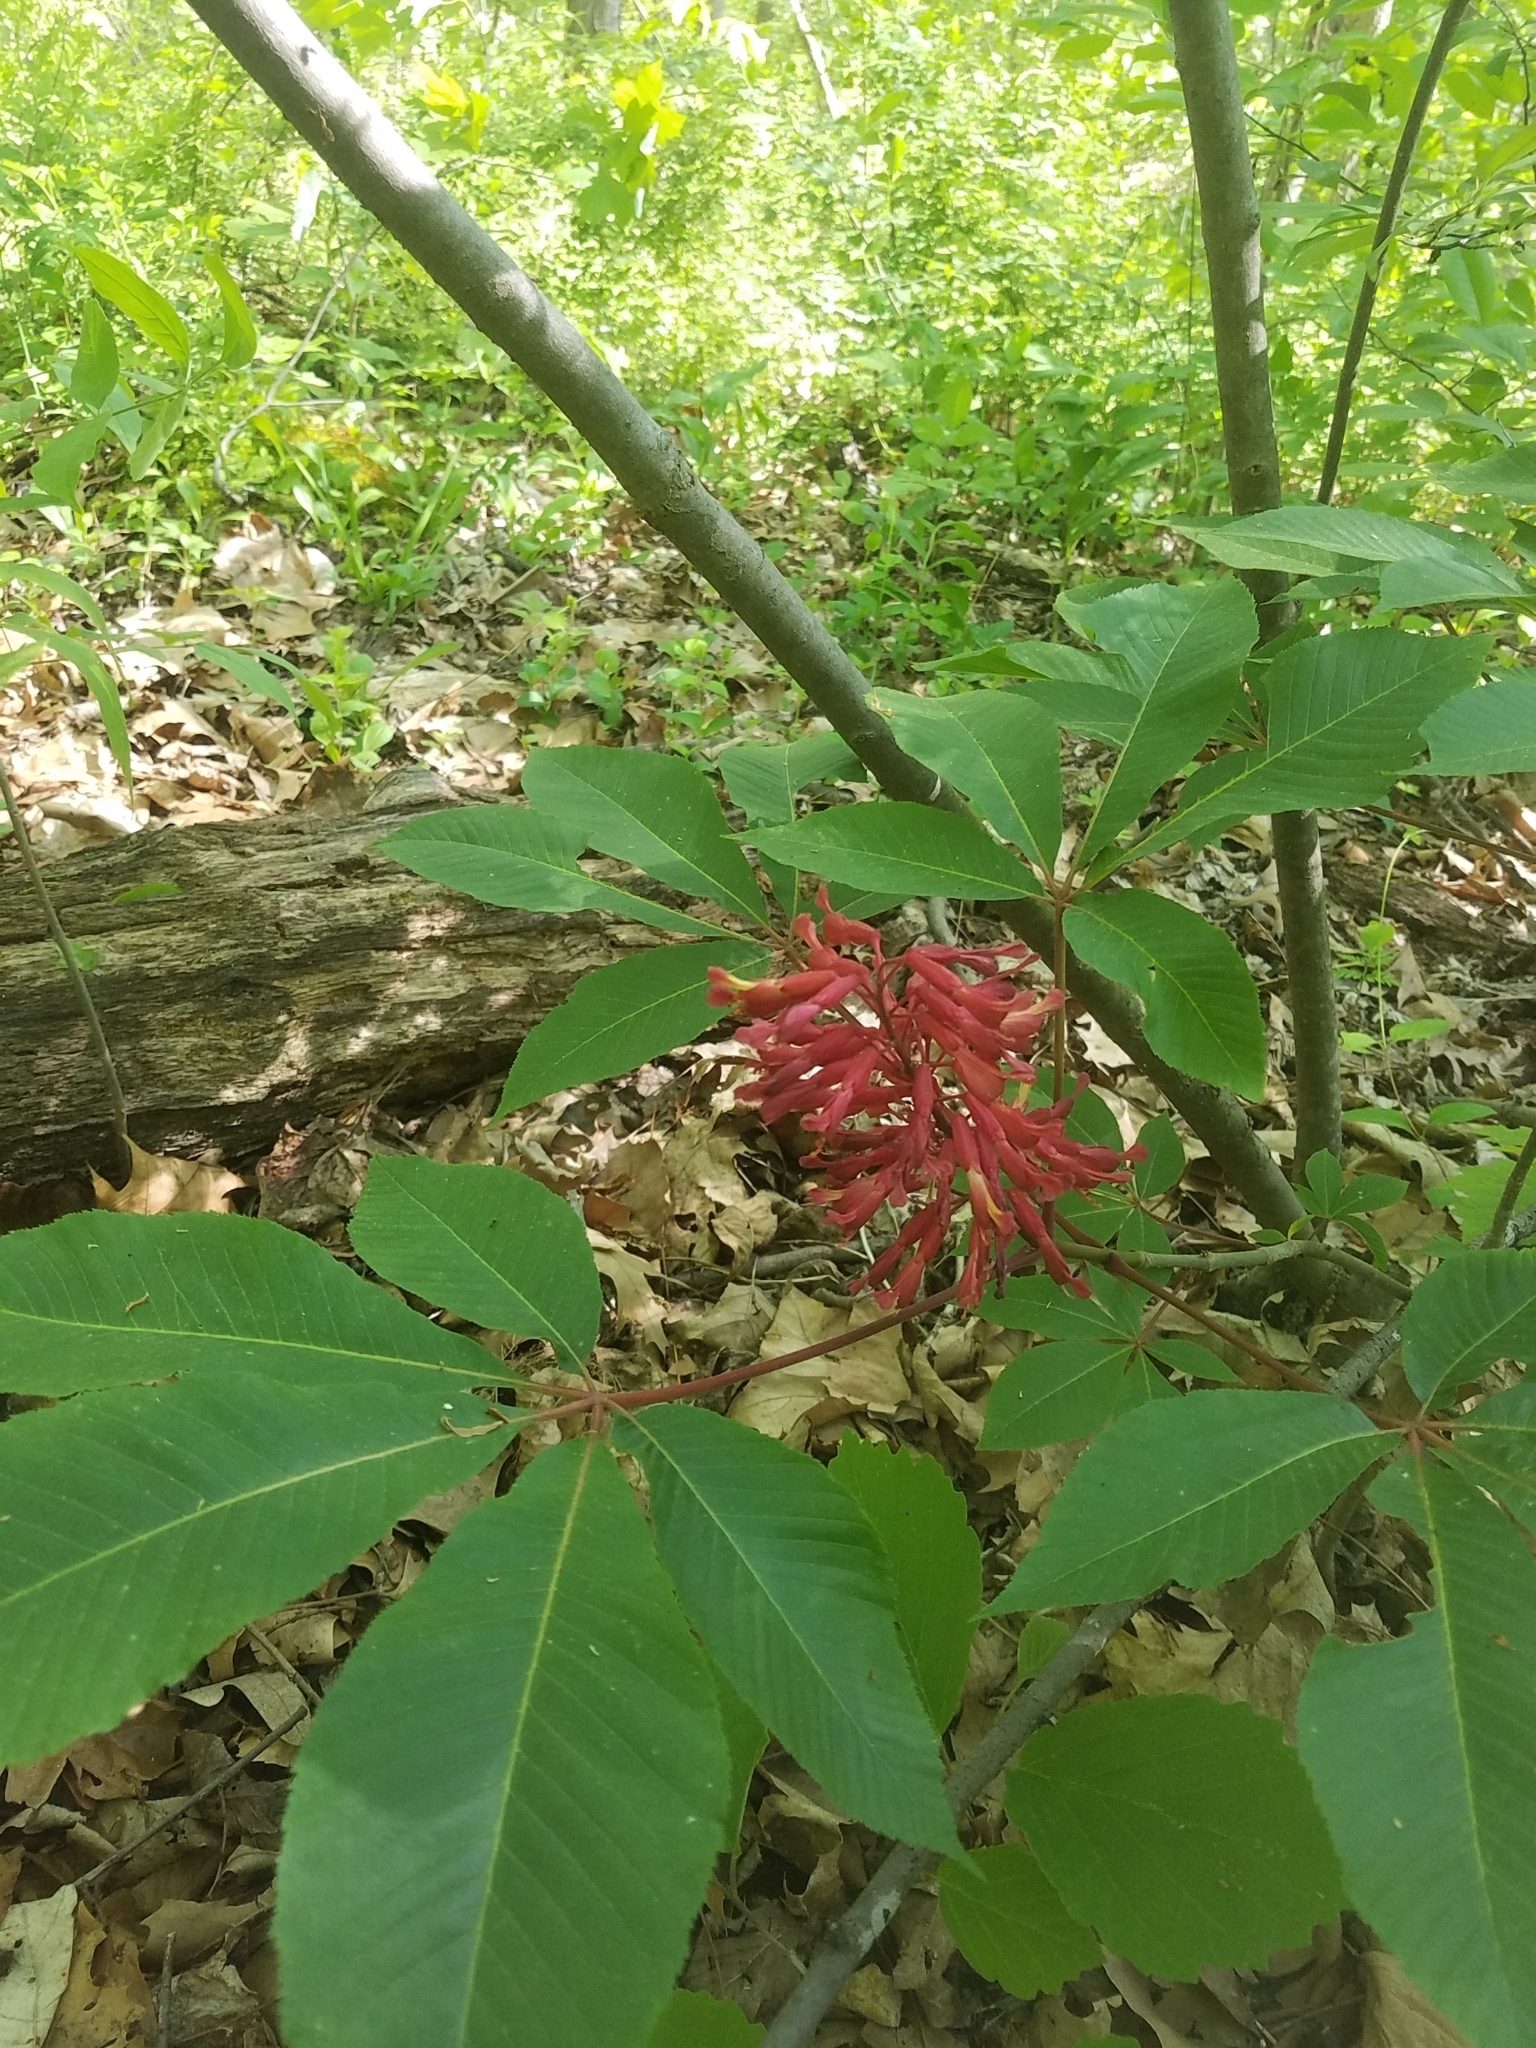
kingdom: Plantae
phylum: Tracheophyta
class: Magnoliopsida
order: Sapindales
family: Sapindaceae
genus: Aesculus
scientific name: Aesculus pavia
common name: Red buckeye
